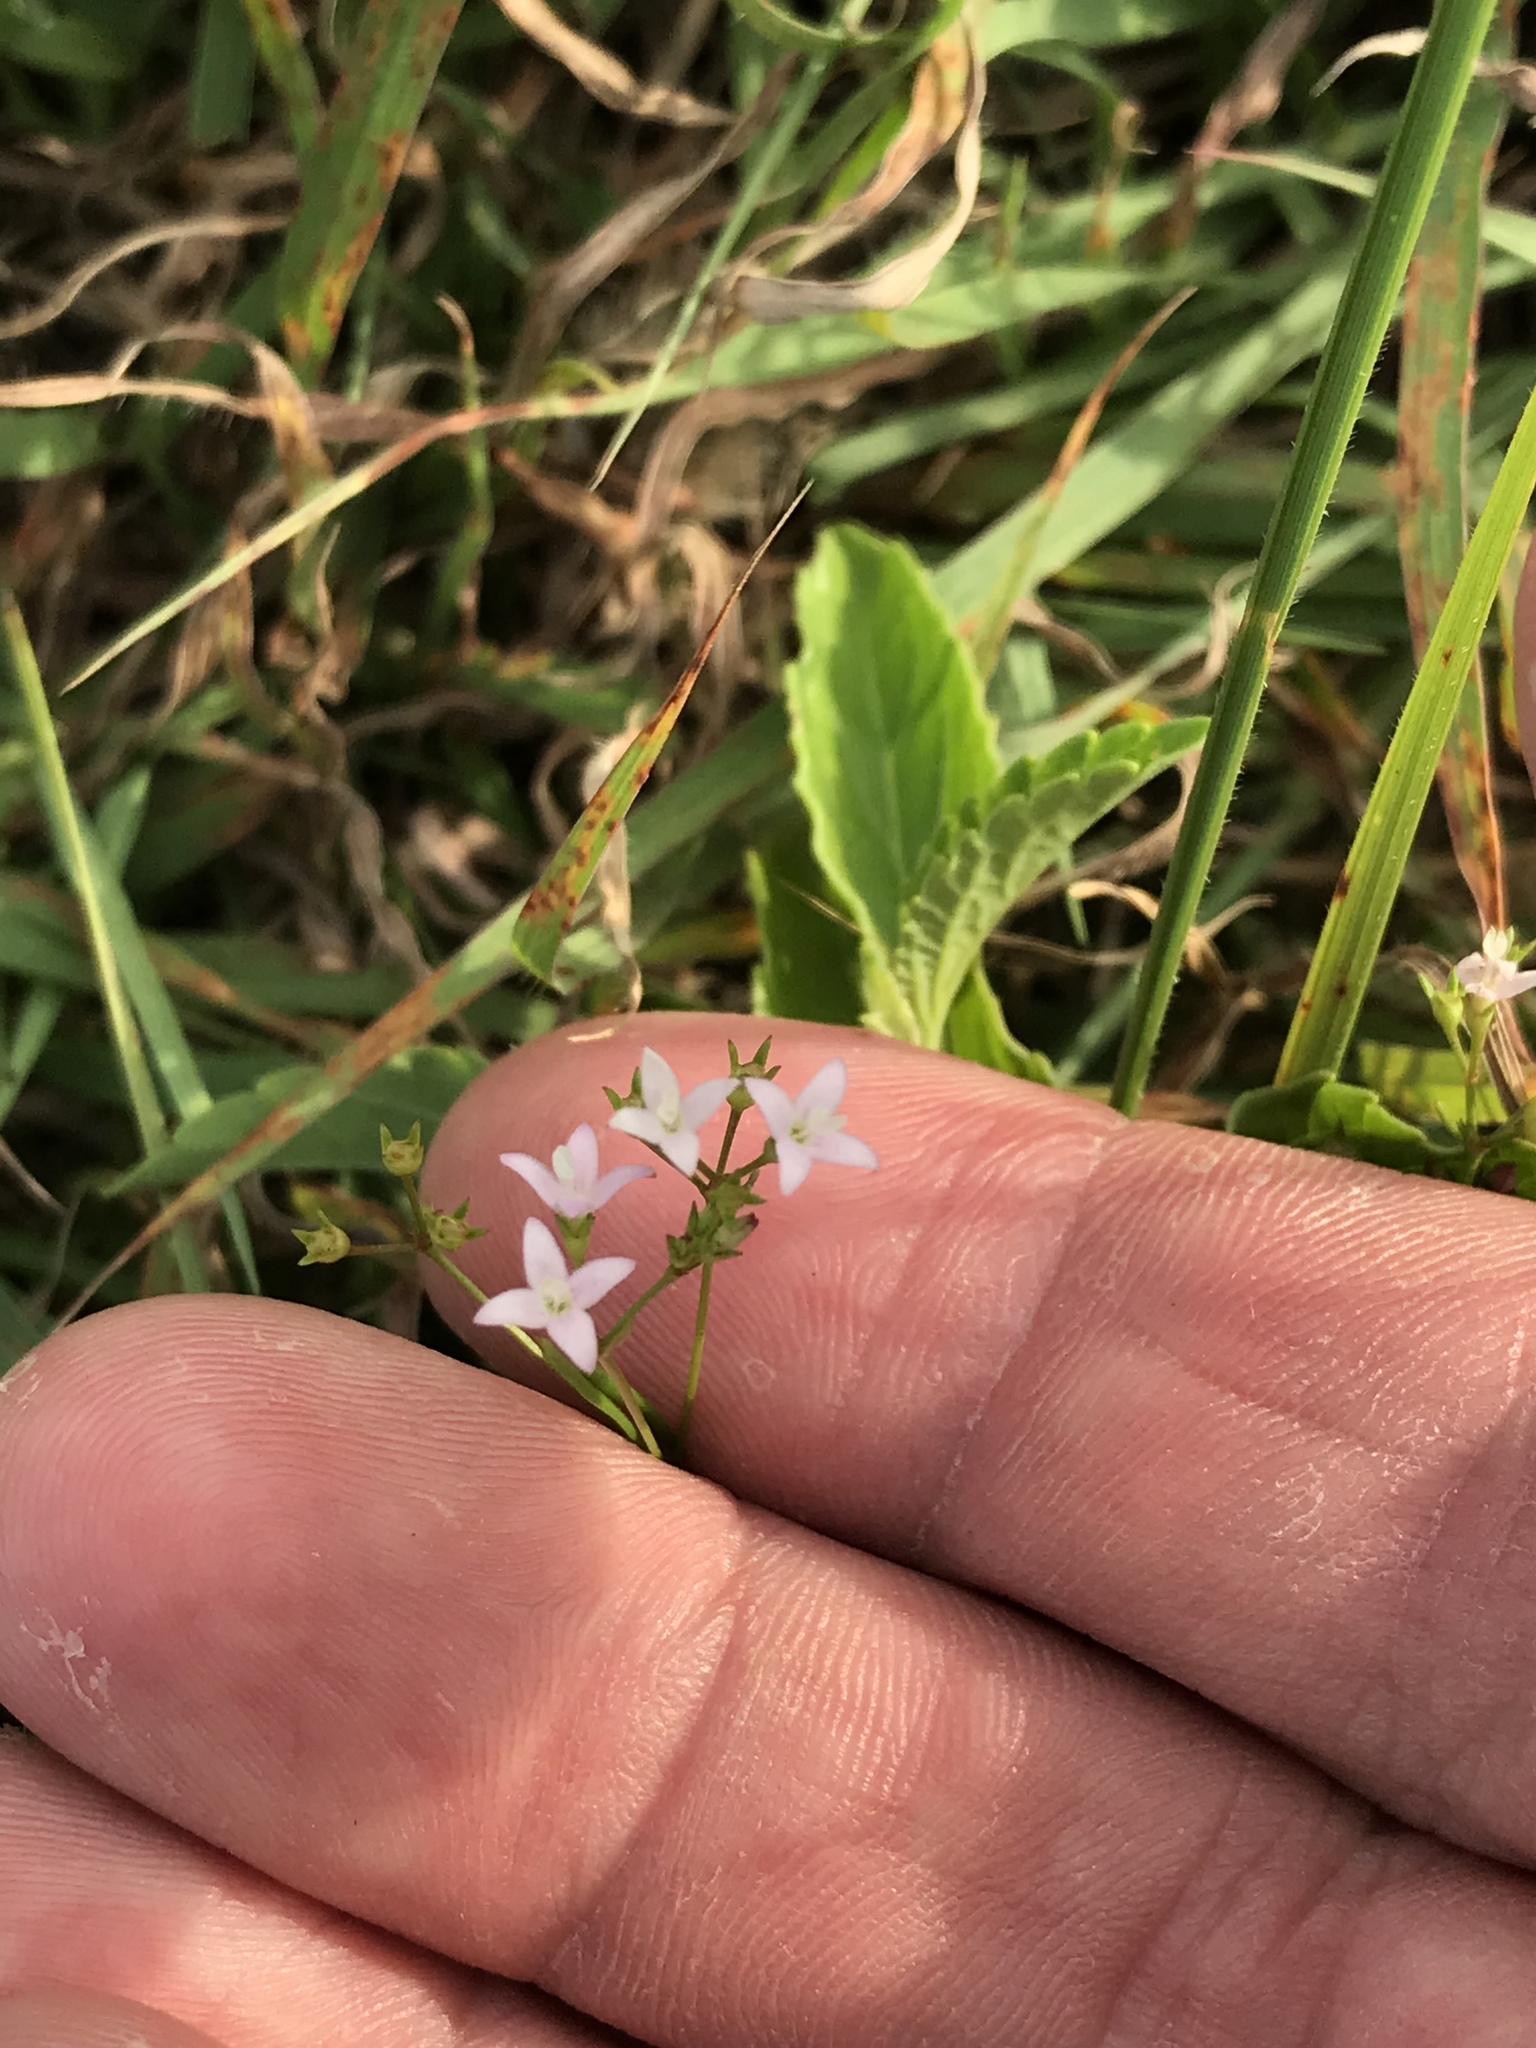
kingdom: Plantae
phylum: Tracheophyta
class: Magnoliopsida
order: Gentianales
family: Rubiaceae
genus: Stenaria
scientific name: Stenaria nigricans
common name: Diamondflowers
